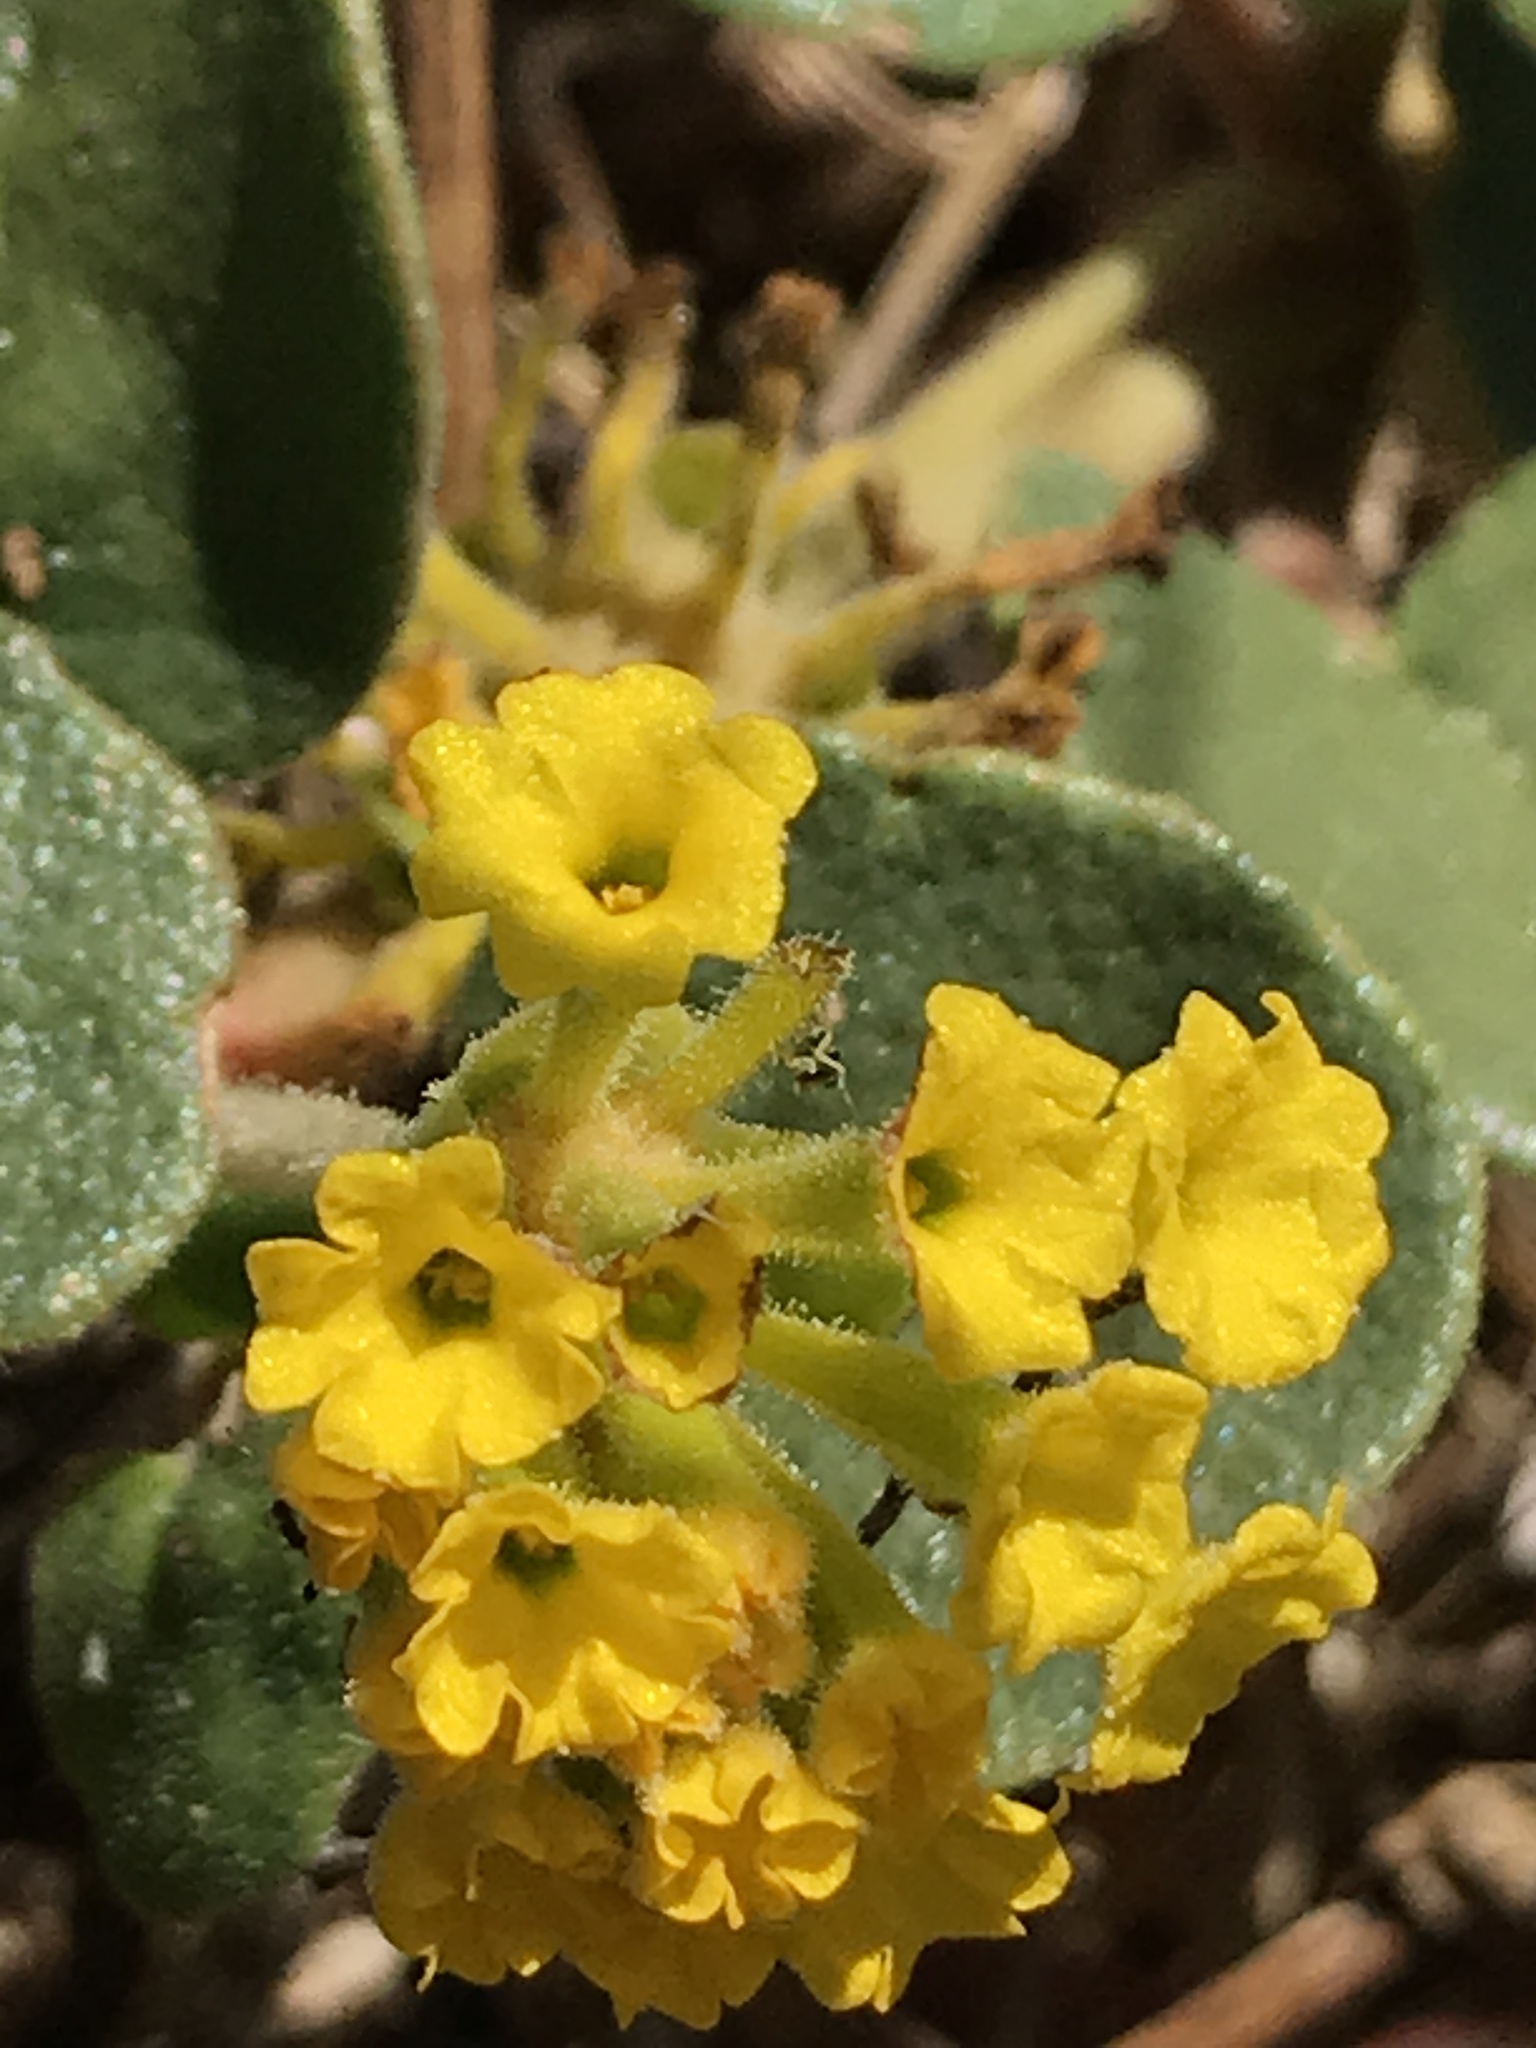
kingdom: Plantae
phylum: Tracheophyta
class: Magnoliopsida
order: Caryophyllales
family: Nyctaginaceae
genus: Abronia
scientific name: Abronia latifolia
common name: Yellow sand-verbena
